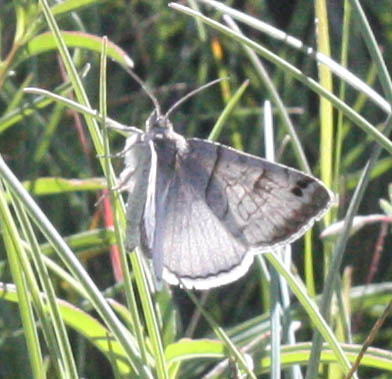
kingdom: Animalia
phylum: Arthropoda
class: Insecta
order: Lepidoptera
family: Erebidae
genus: Caenurgina
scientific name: Caenurgina caerulea
